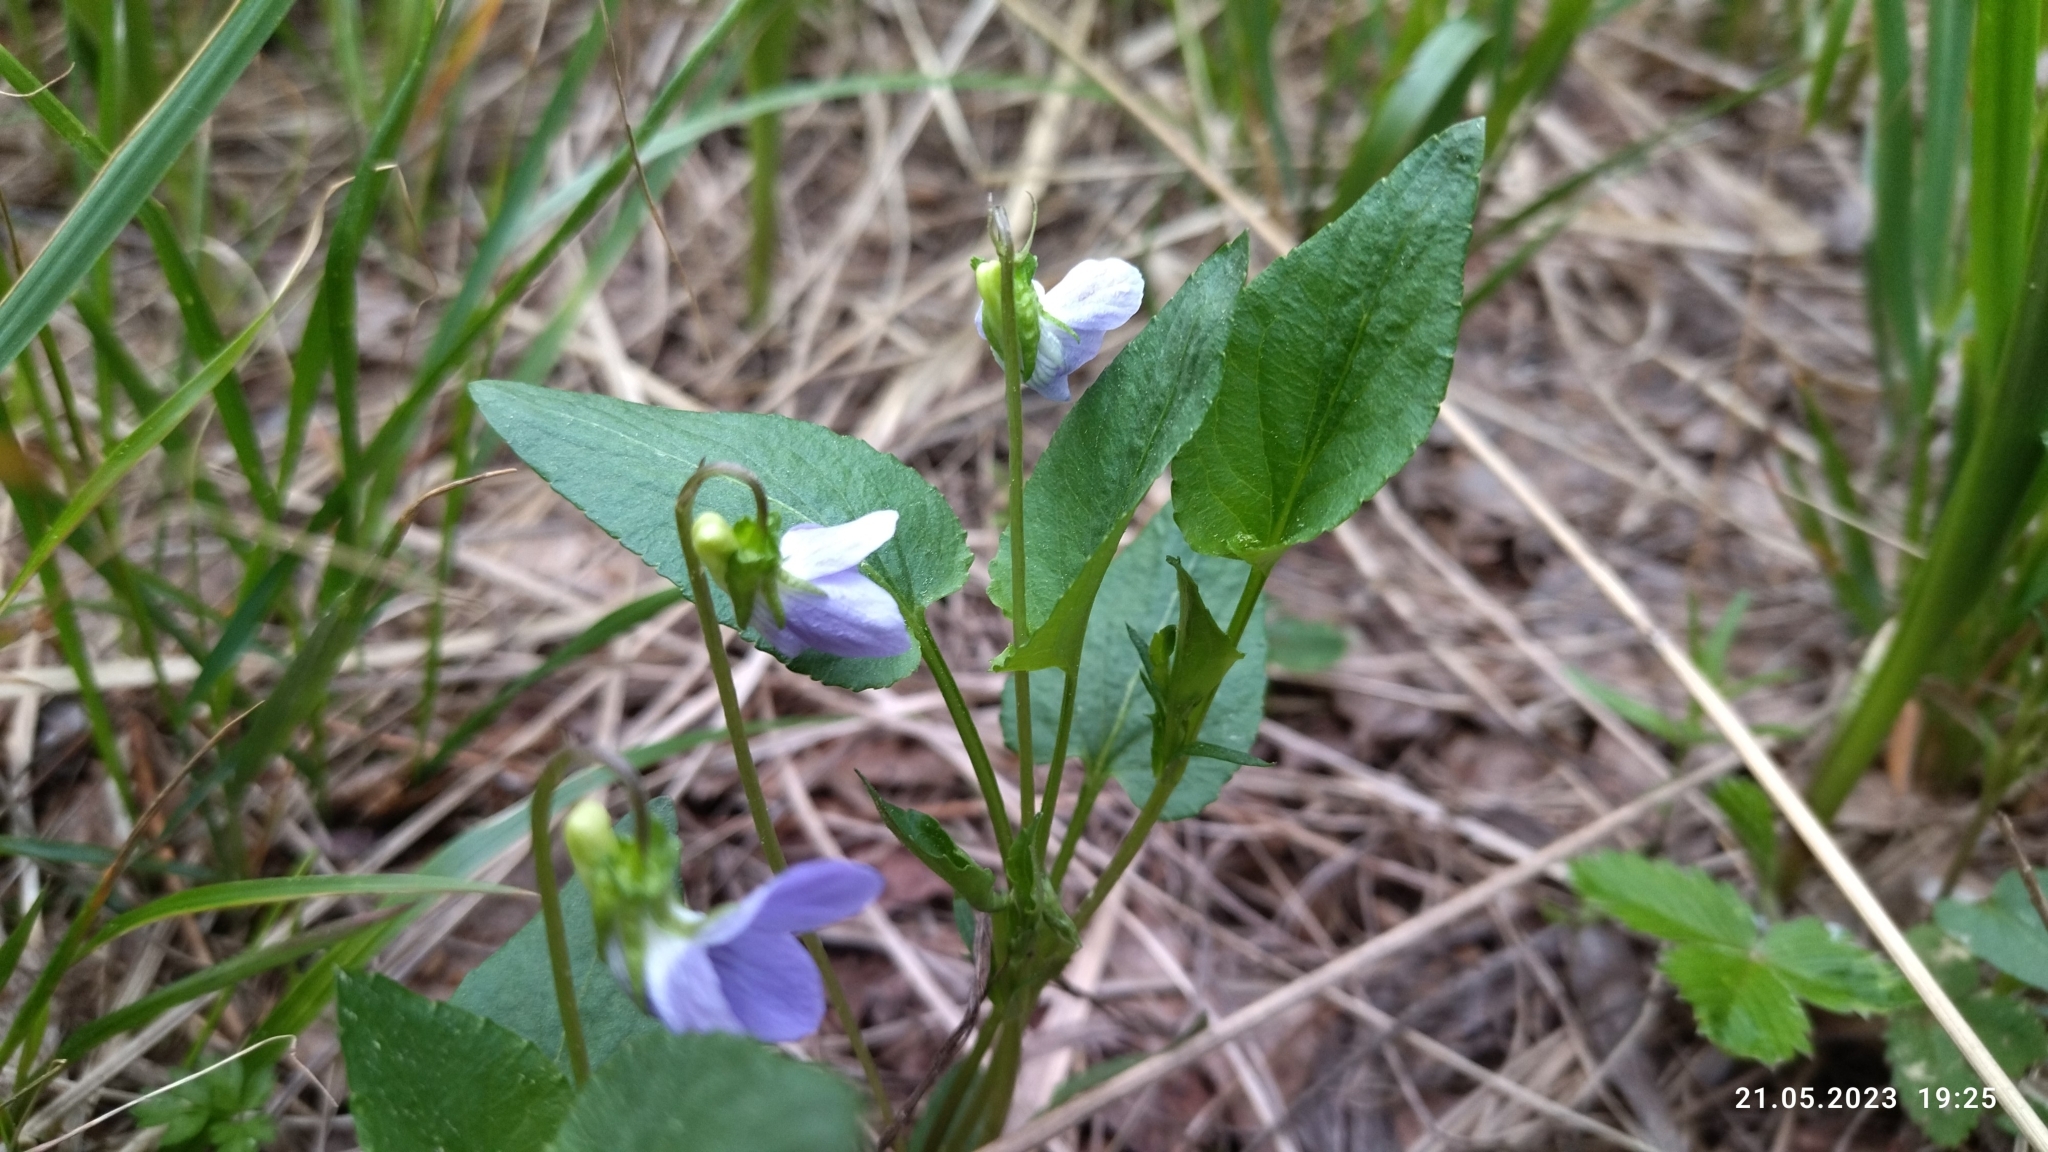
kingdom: Plantae
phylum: Tracheophyta
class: Magnoliopsida
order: Malpighiales
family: Violaceae
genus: Viola
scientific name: Viola
